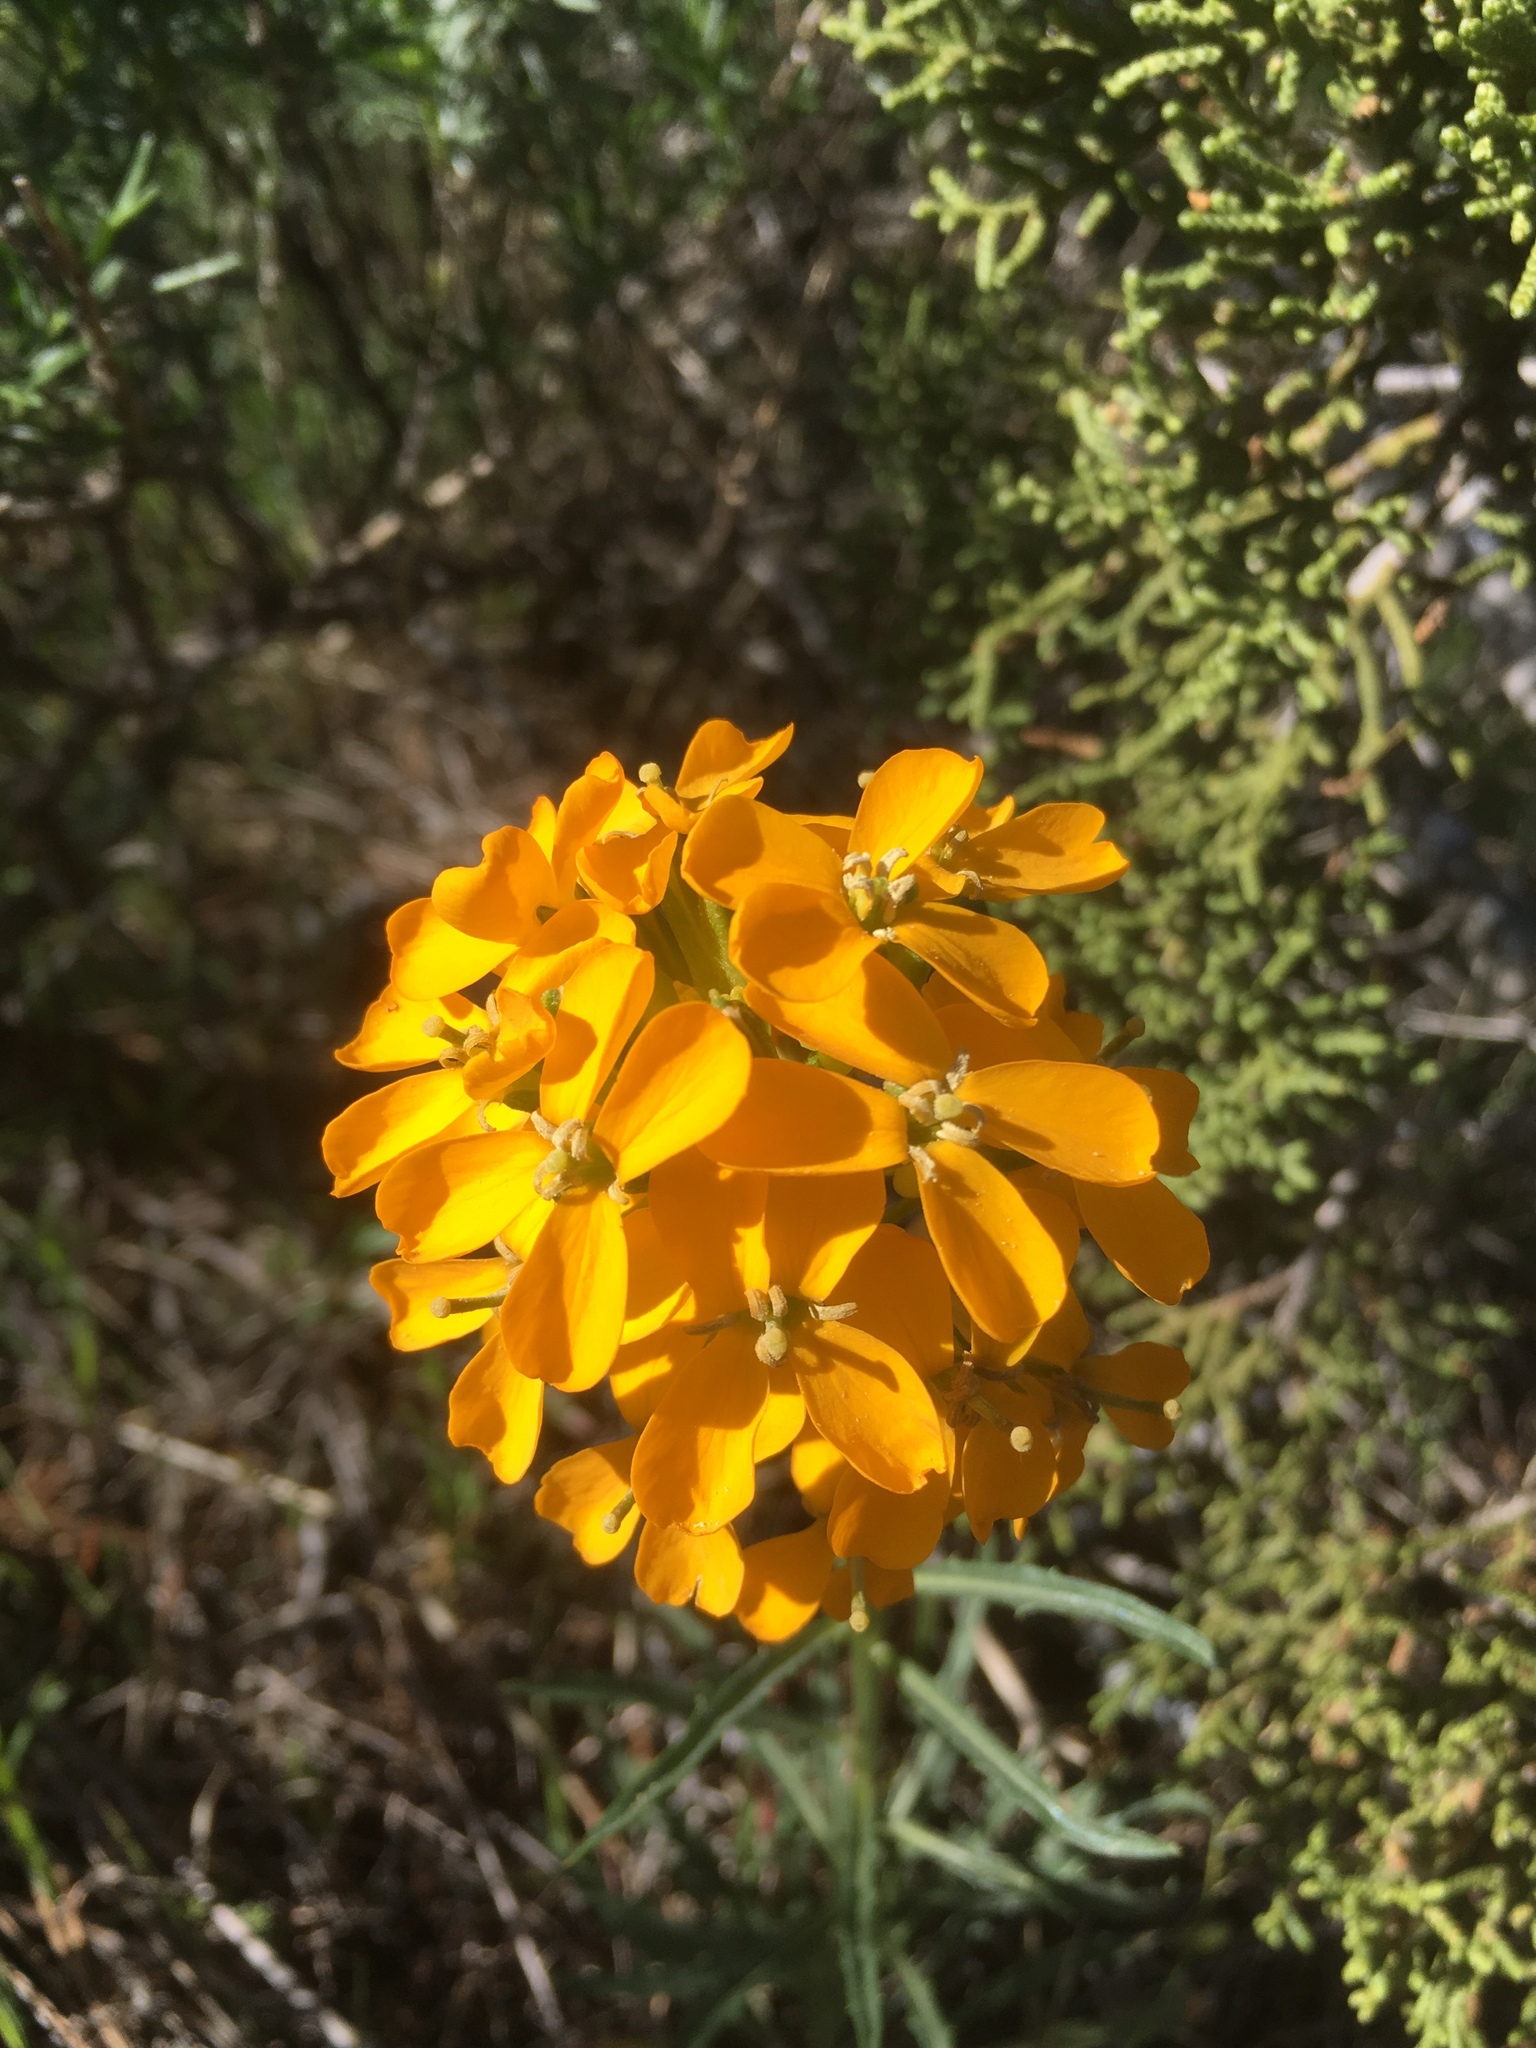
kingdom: Plantae
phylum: Tracheophyta
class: Magnoliopsida
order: Brassicales
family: Brassicaceae
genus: Erysimum
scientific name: Erysimum capitatum
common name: Western wallflower
